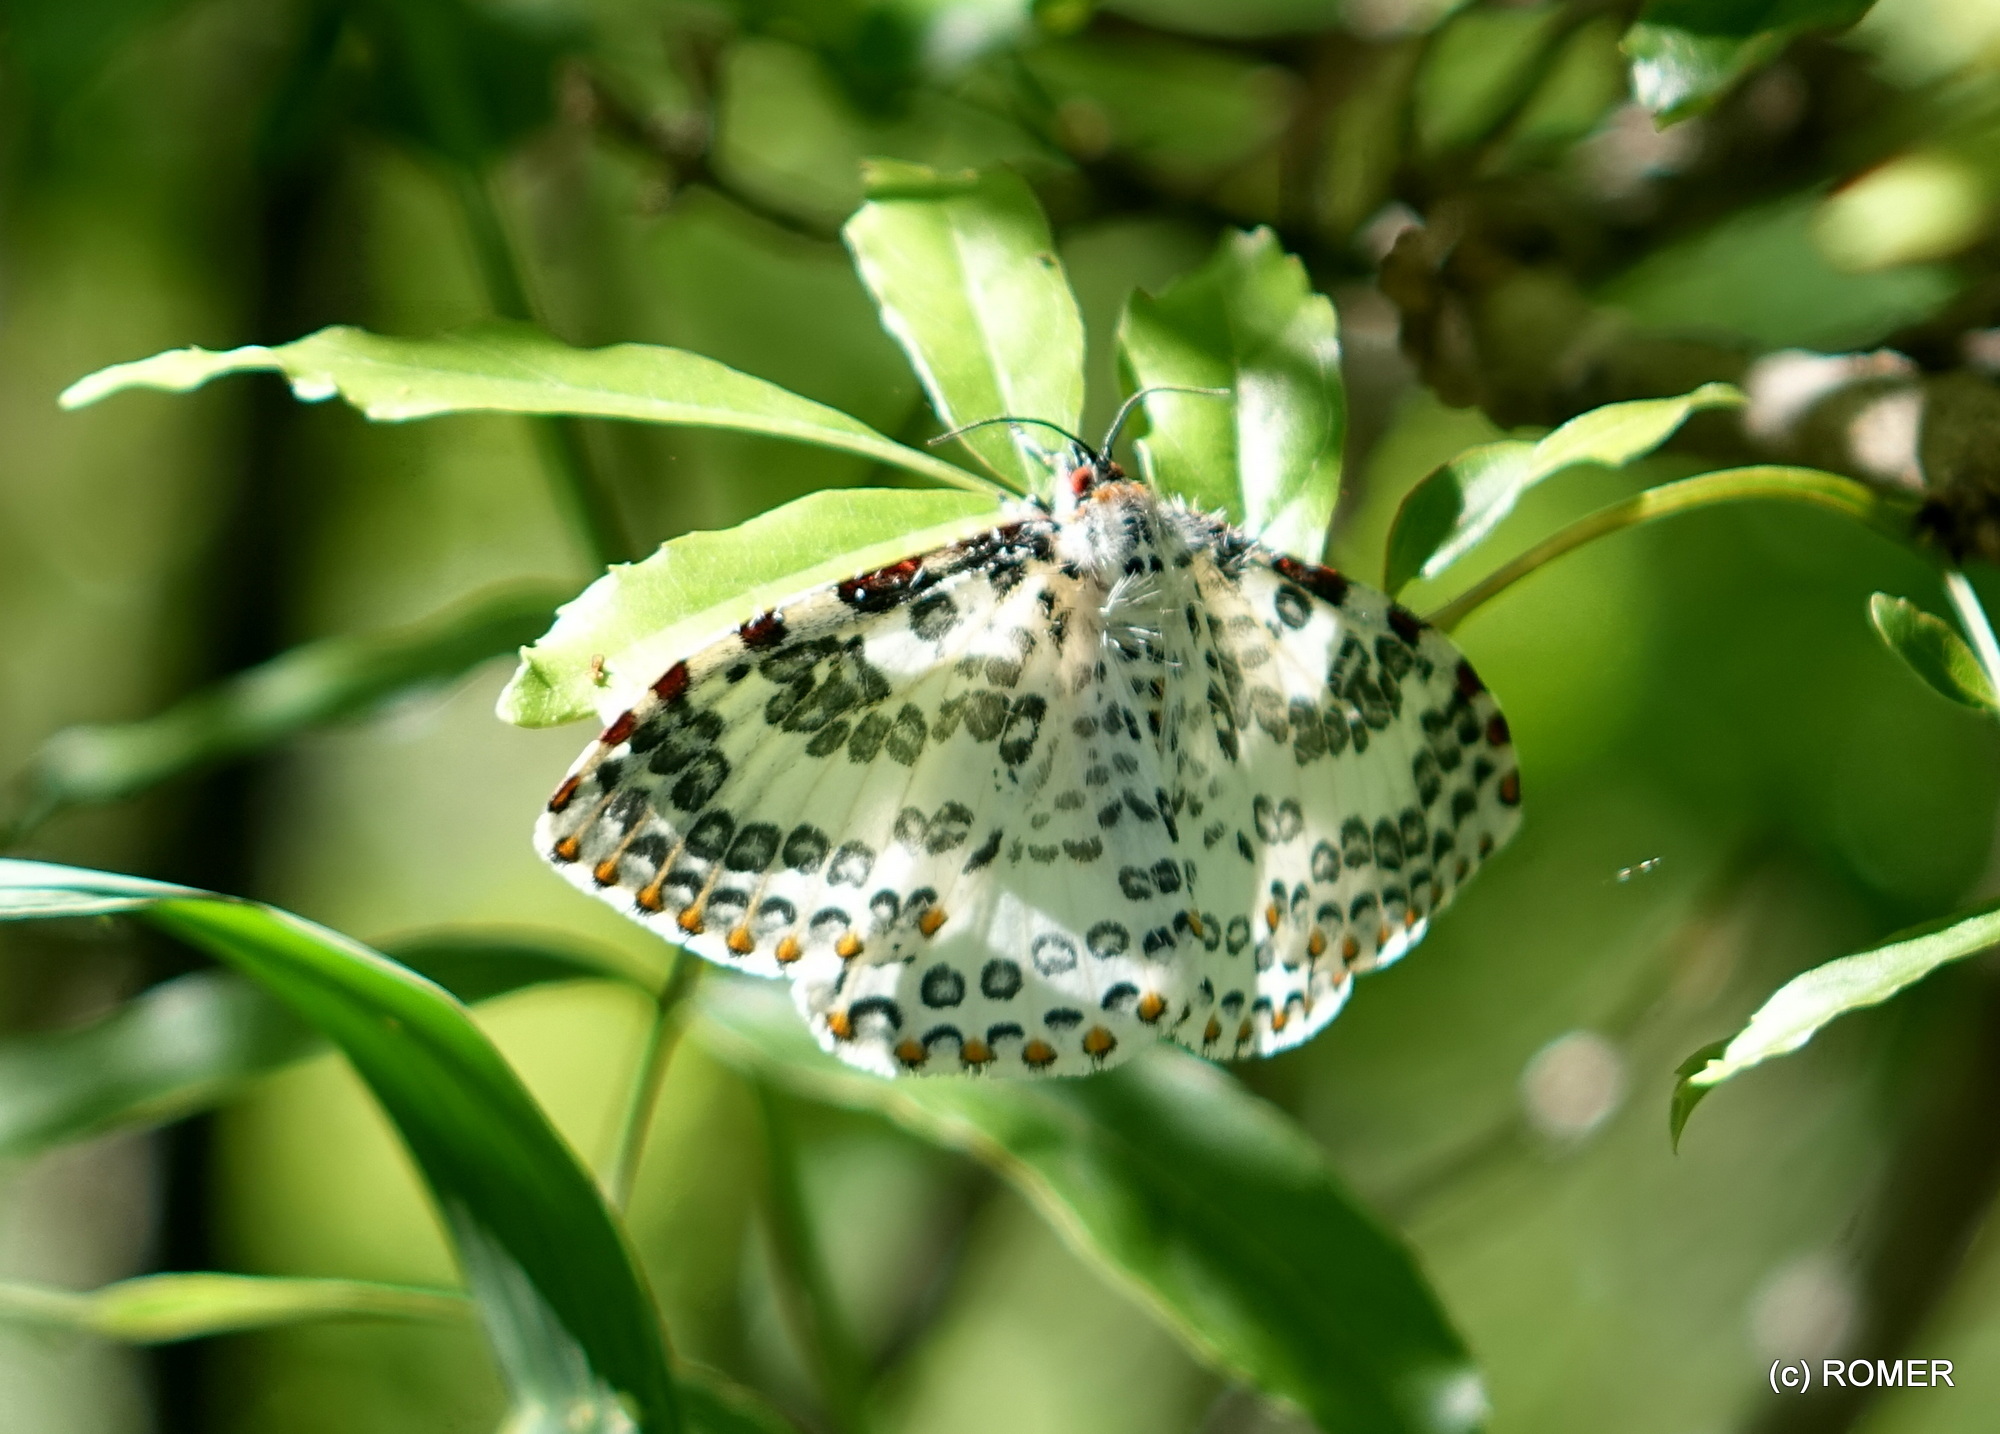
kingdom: Animalia
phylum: Arthropoda
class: Insecta
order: Lepidoptera
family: Callidulidae
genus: Caloschemia
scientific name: Caloschemia monolifera
